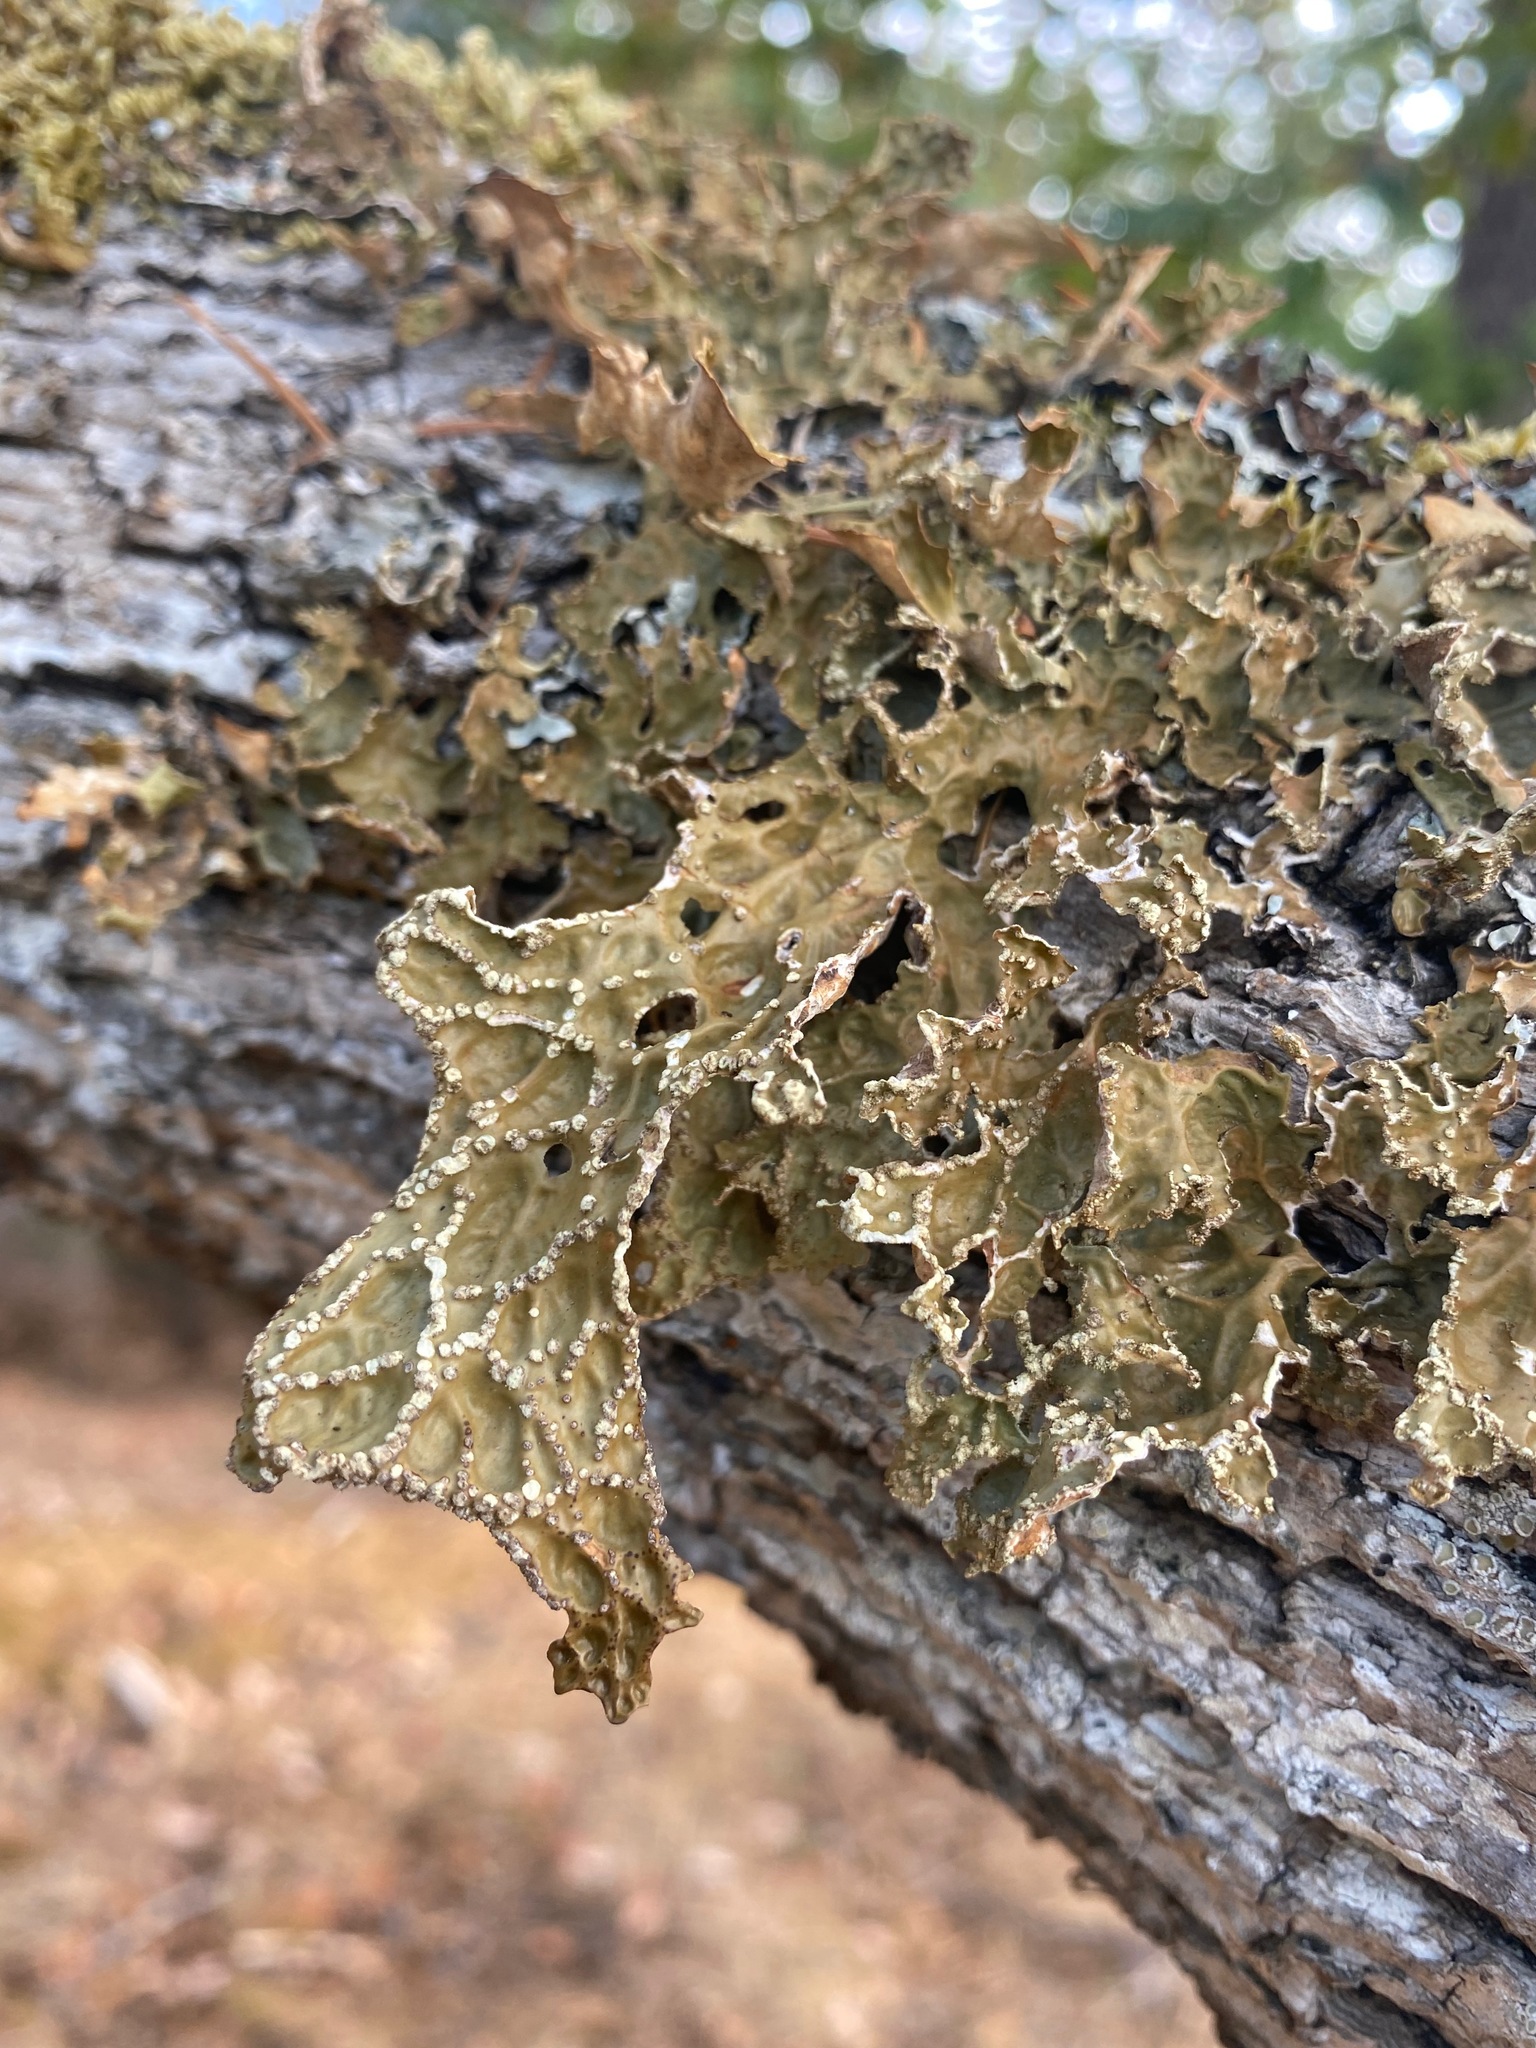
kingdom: Fungi
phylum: Ascomycota
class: Lecanoromycetes
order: Peltigerales
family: Lobariaceae
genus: Lobaria
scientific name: Lobaria pulmonaria
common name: Lungwort
